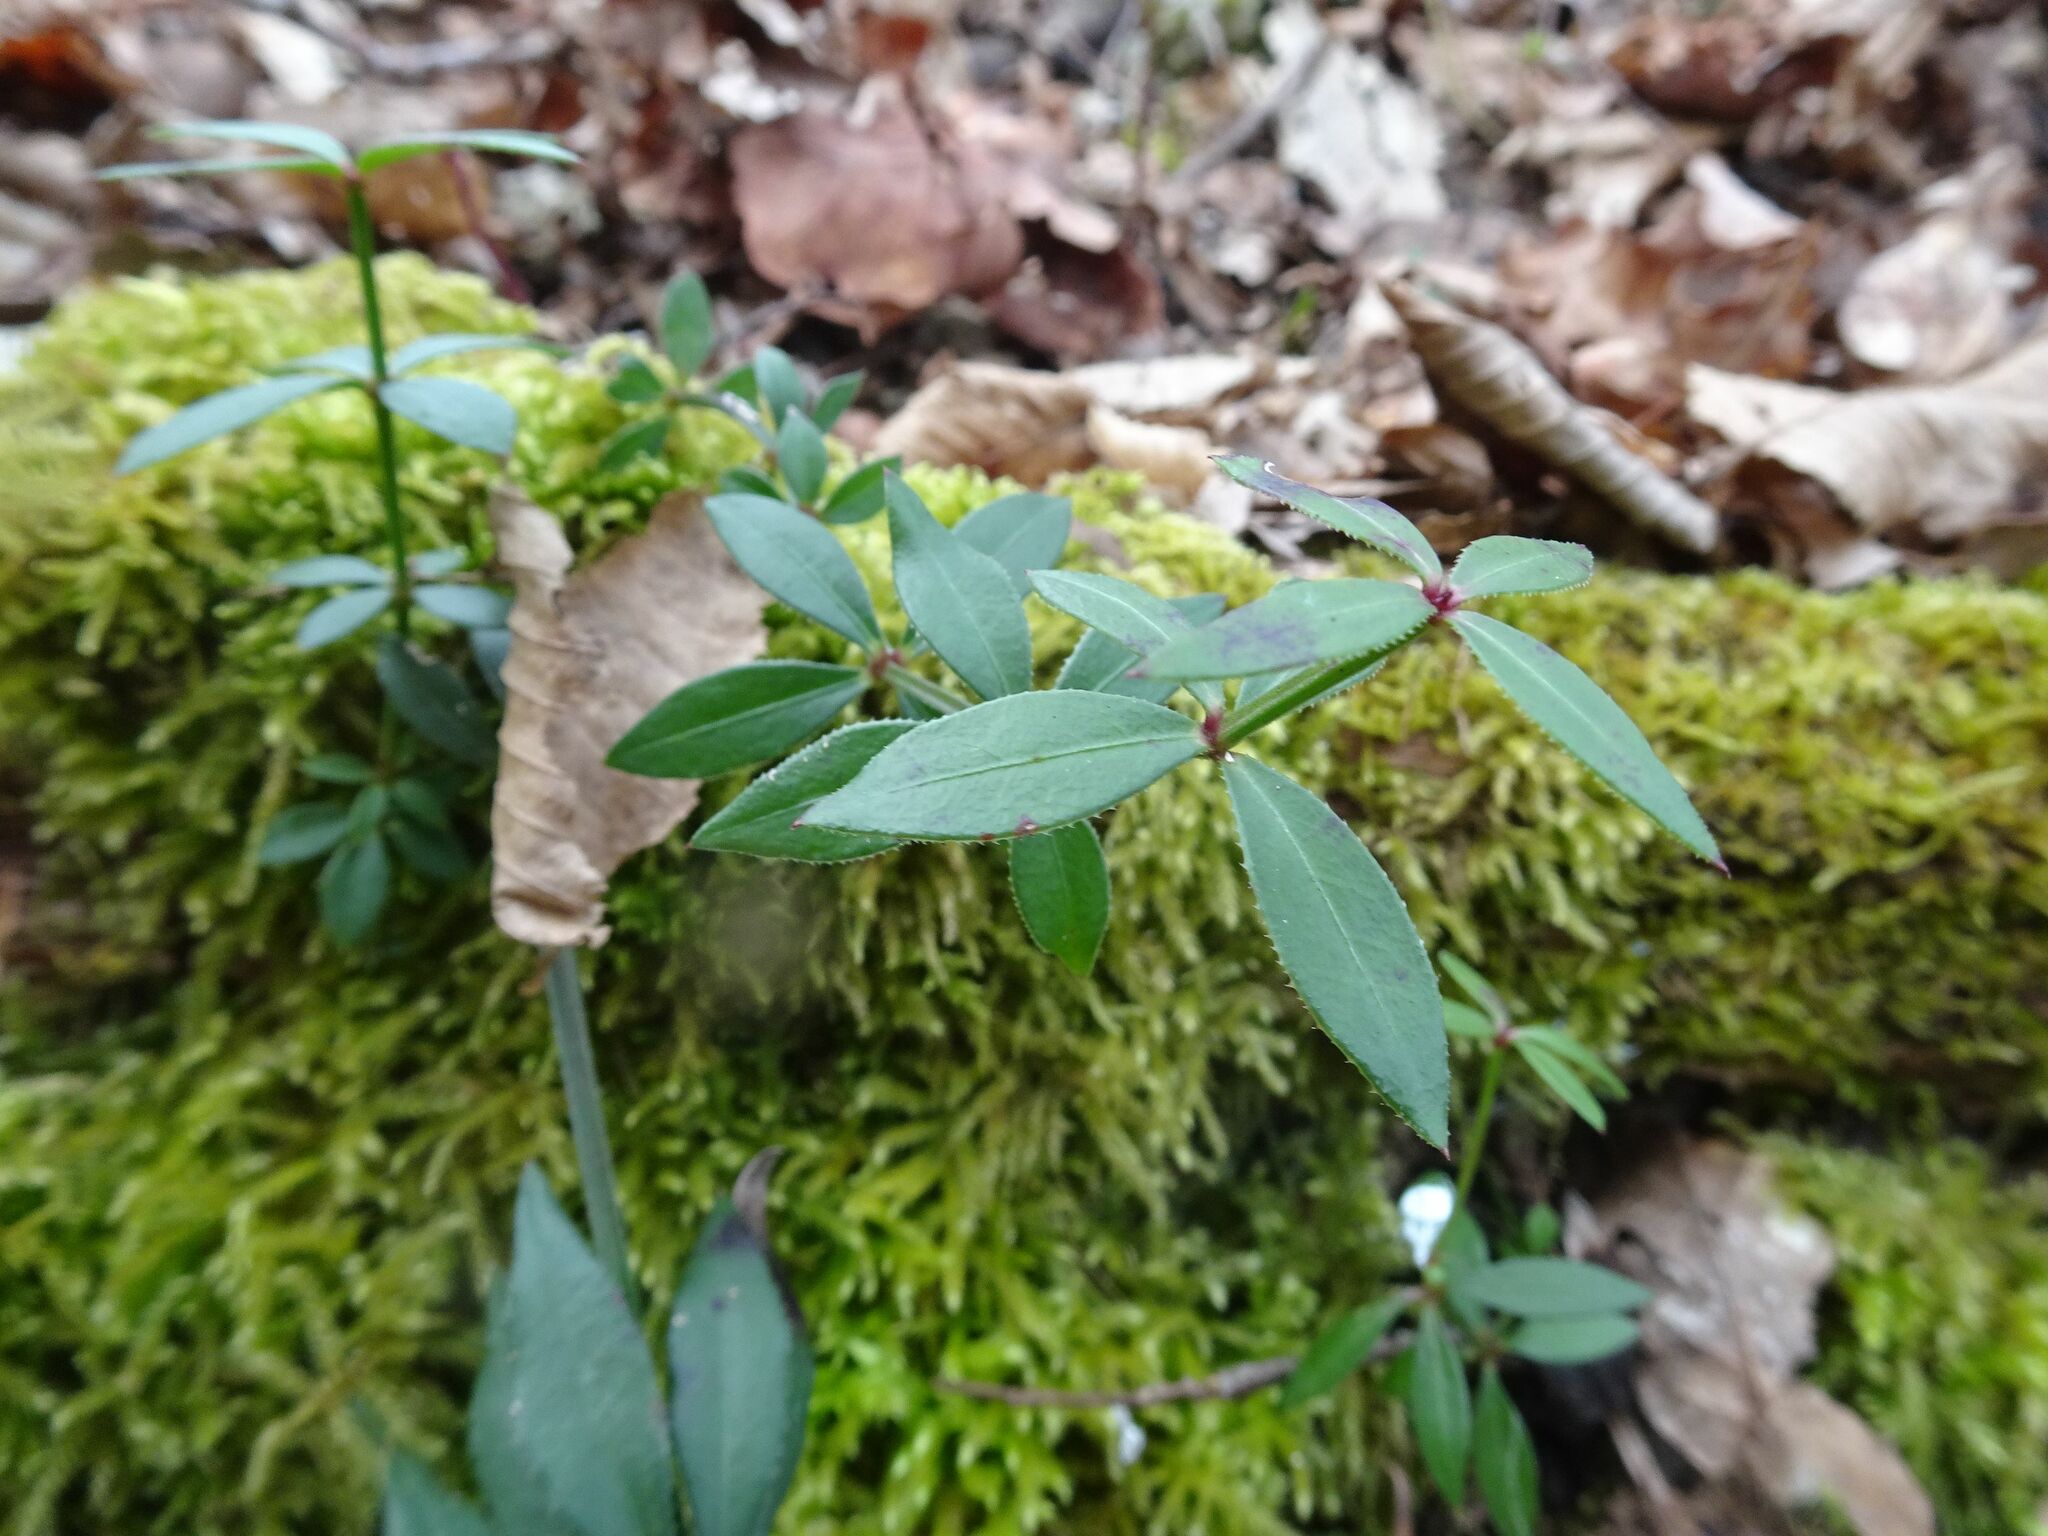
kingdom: Plantae
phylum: Tracheophyta
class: Magnoliopsida
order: Gentianales
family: Rubiaceae
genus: Rubia
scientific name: Rubia peregrina
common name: Wild madder
